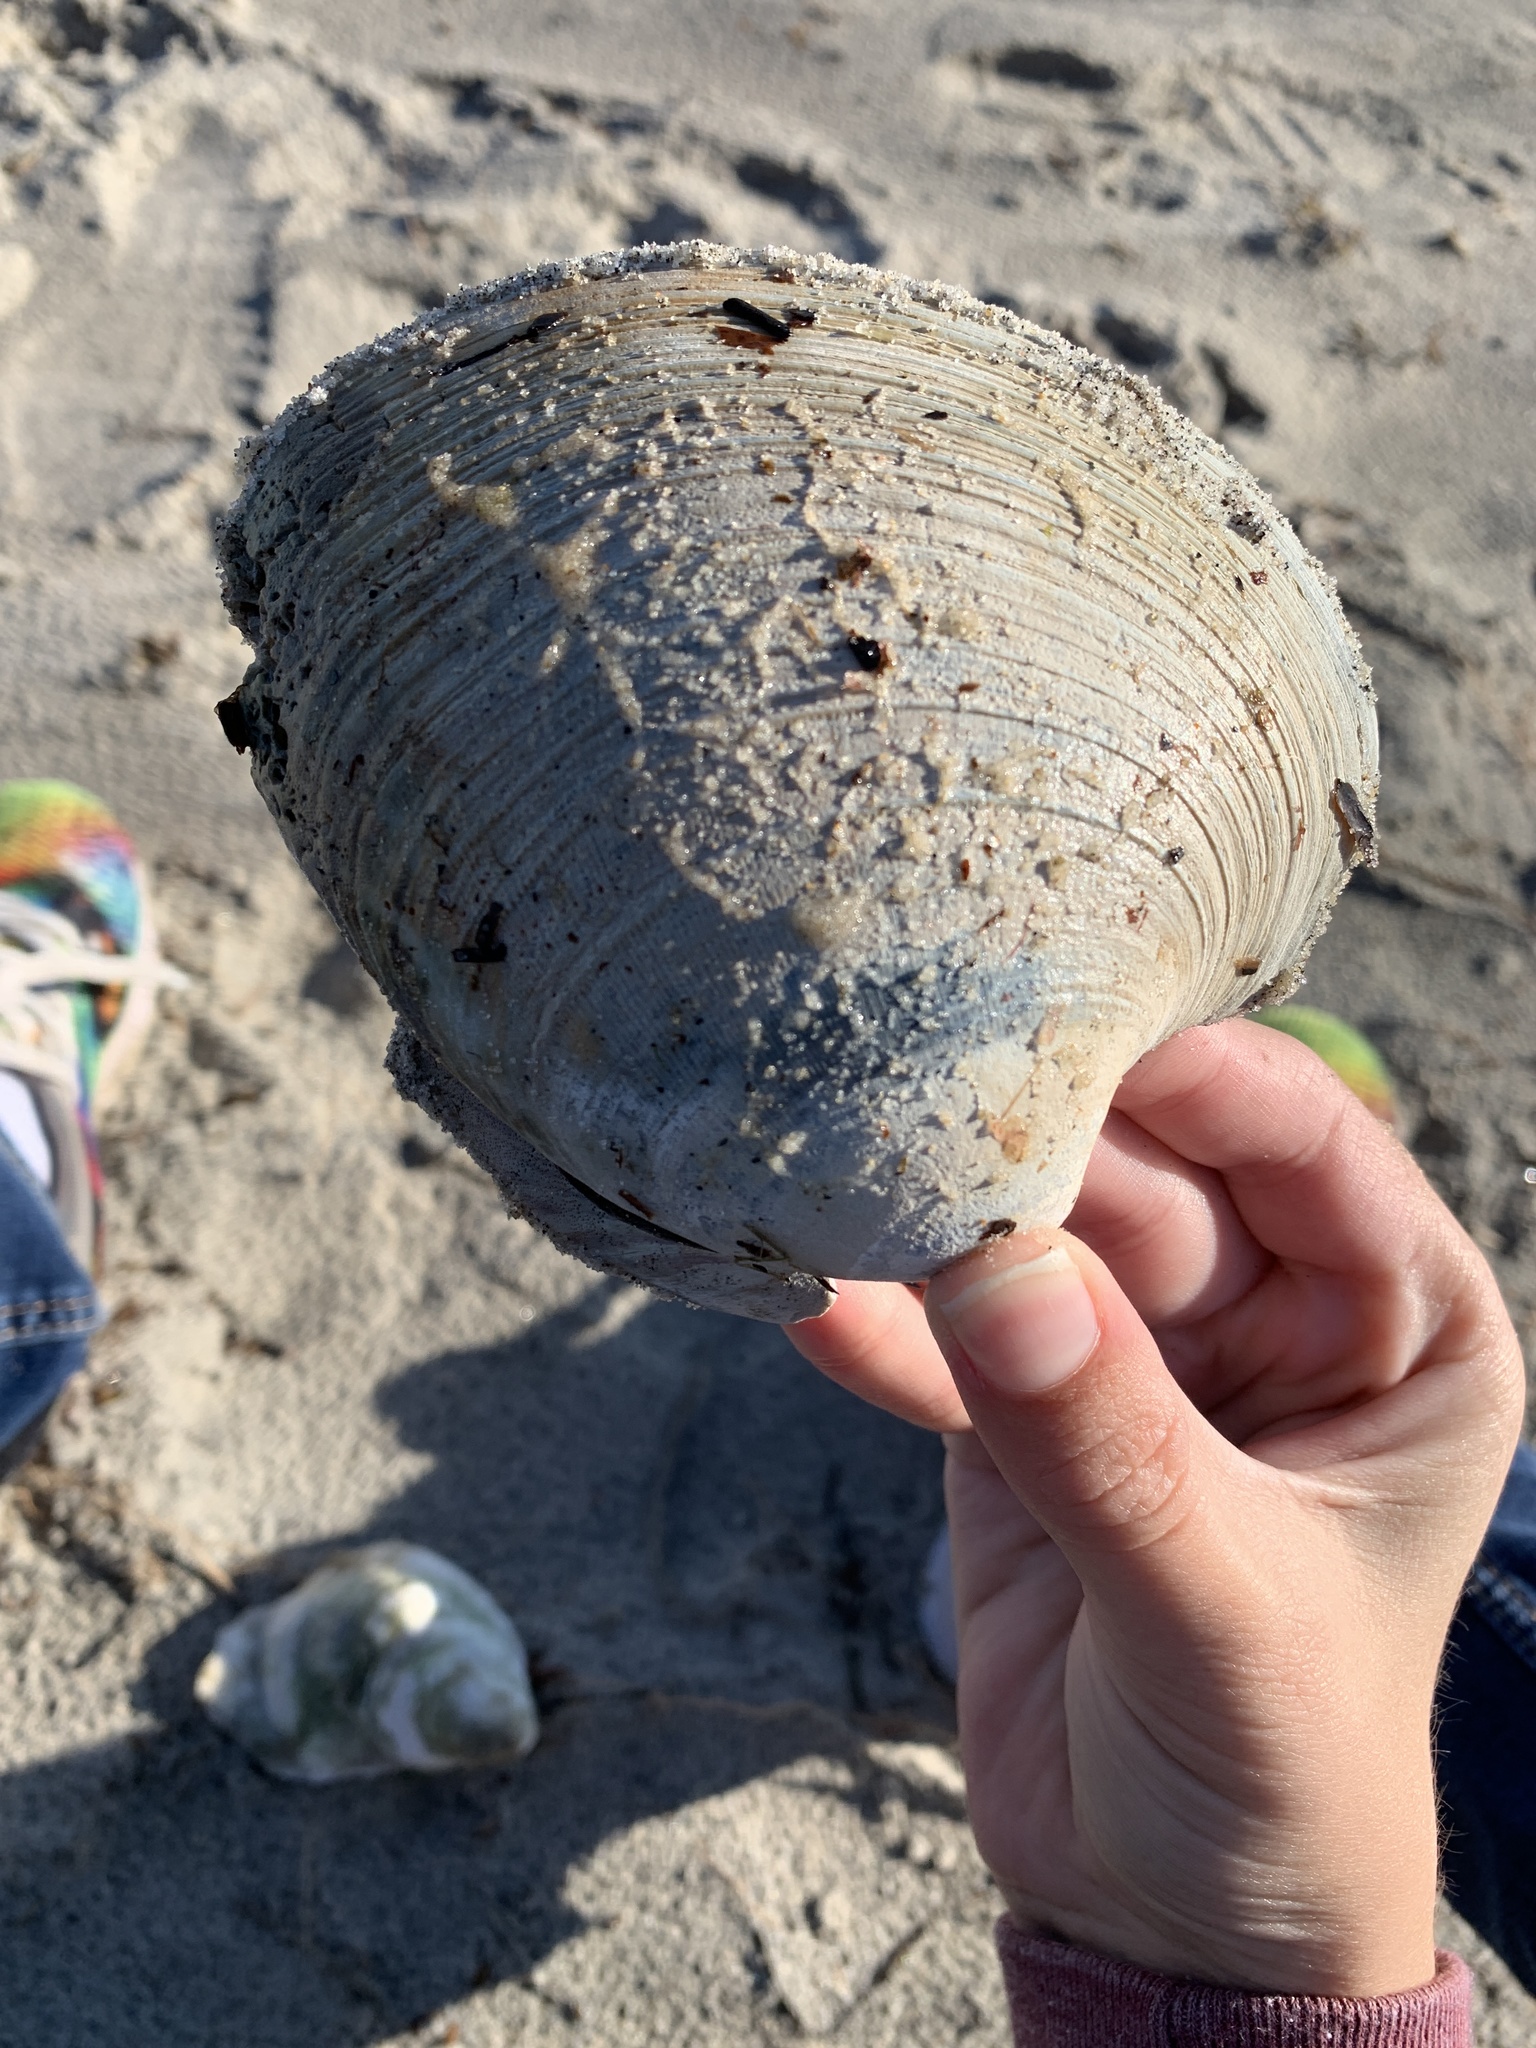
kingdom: Animalia
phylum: Mollusca
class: Bivalvia
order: Venerida
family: Veneridae
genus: Mercenaria
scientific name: Mercenaria mercenaria
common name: American hard-shelled clam
